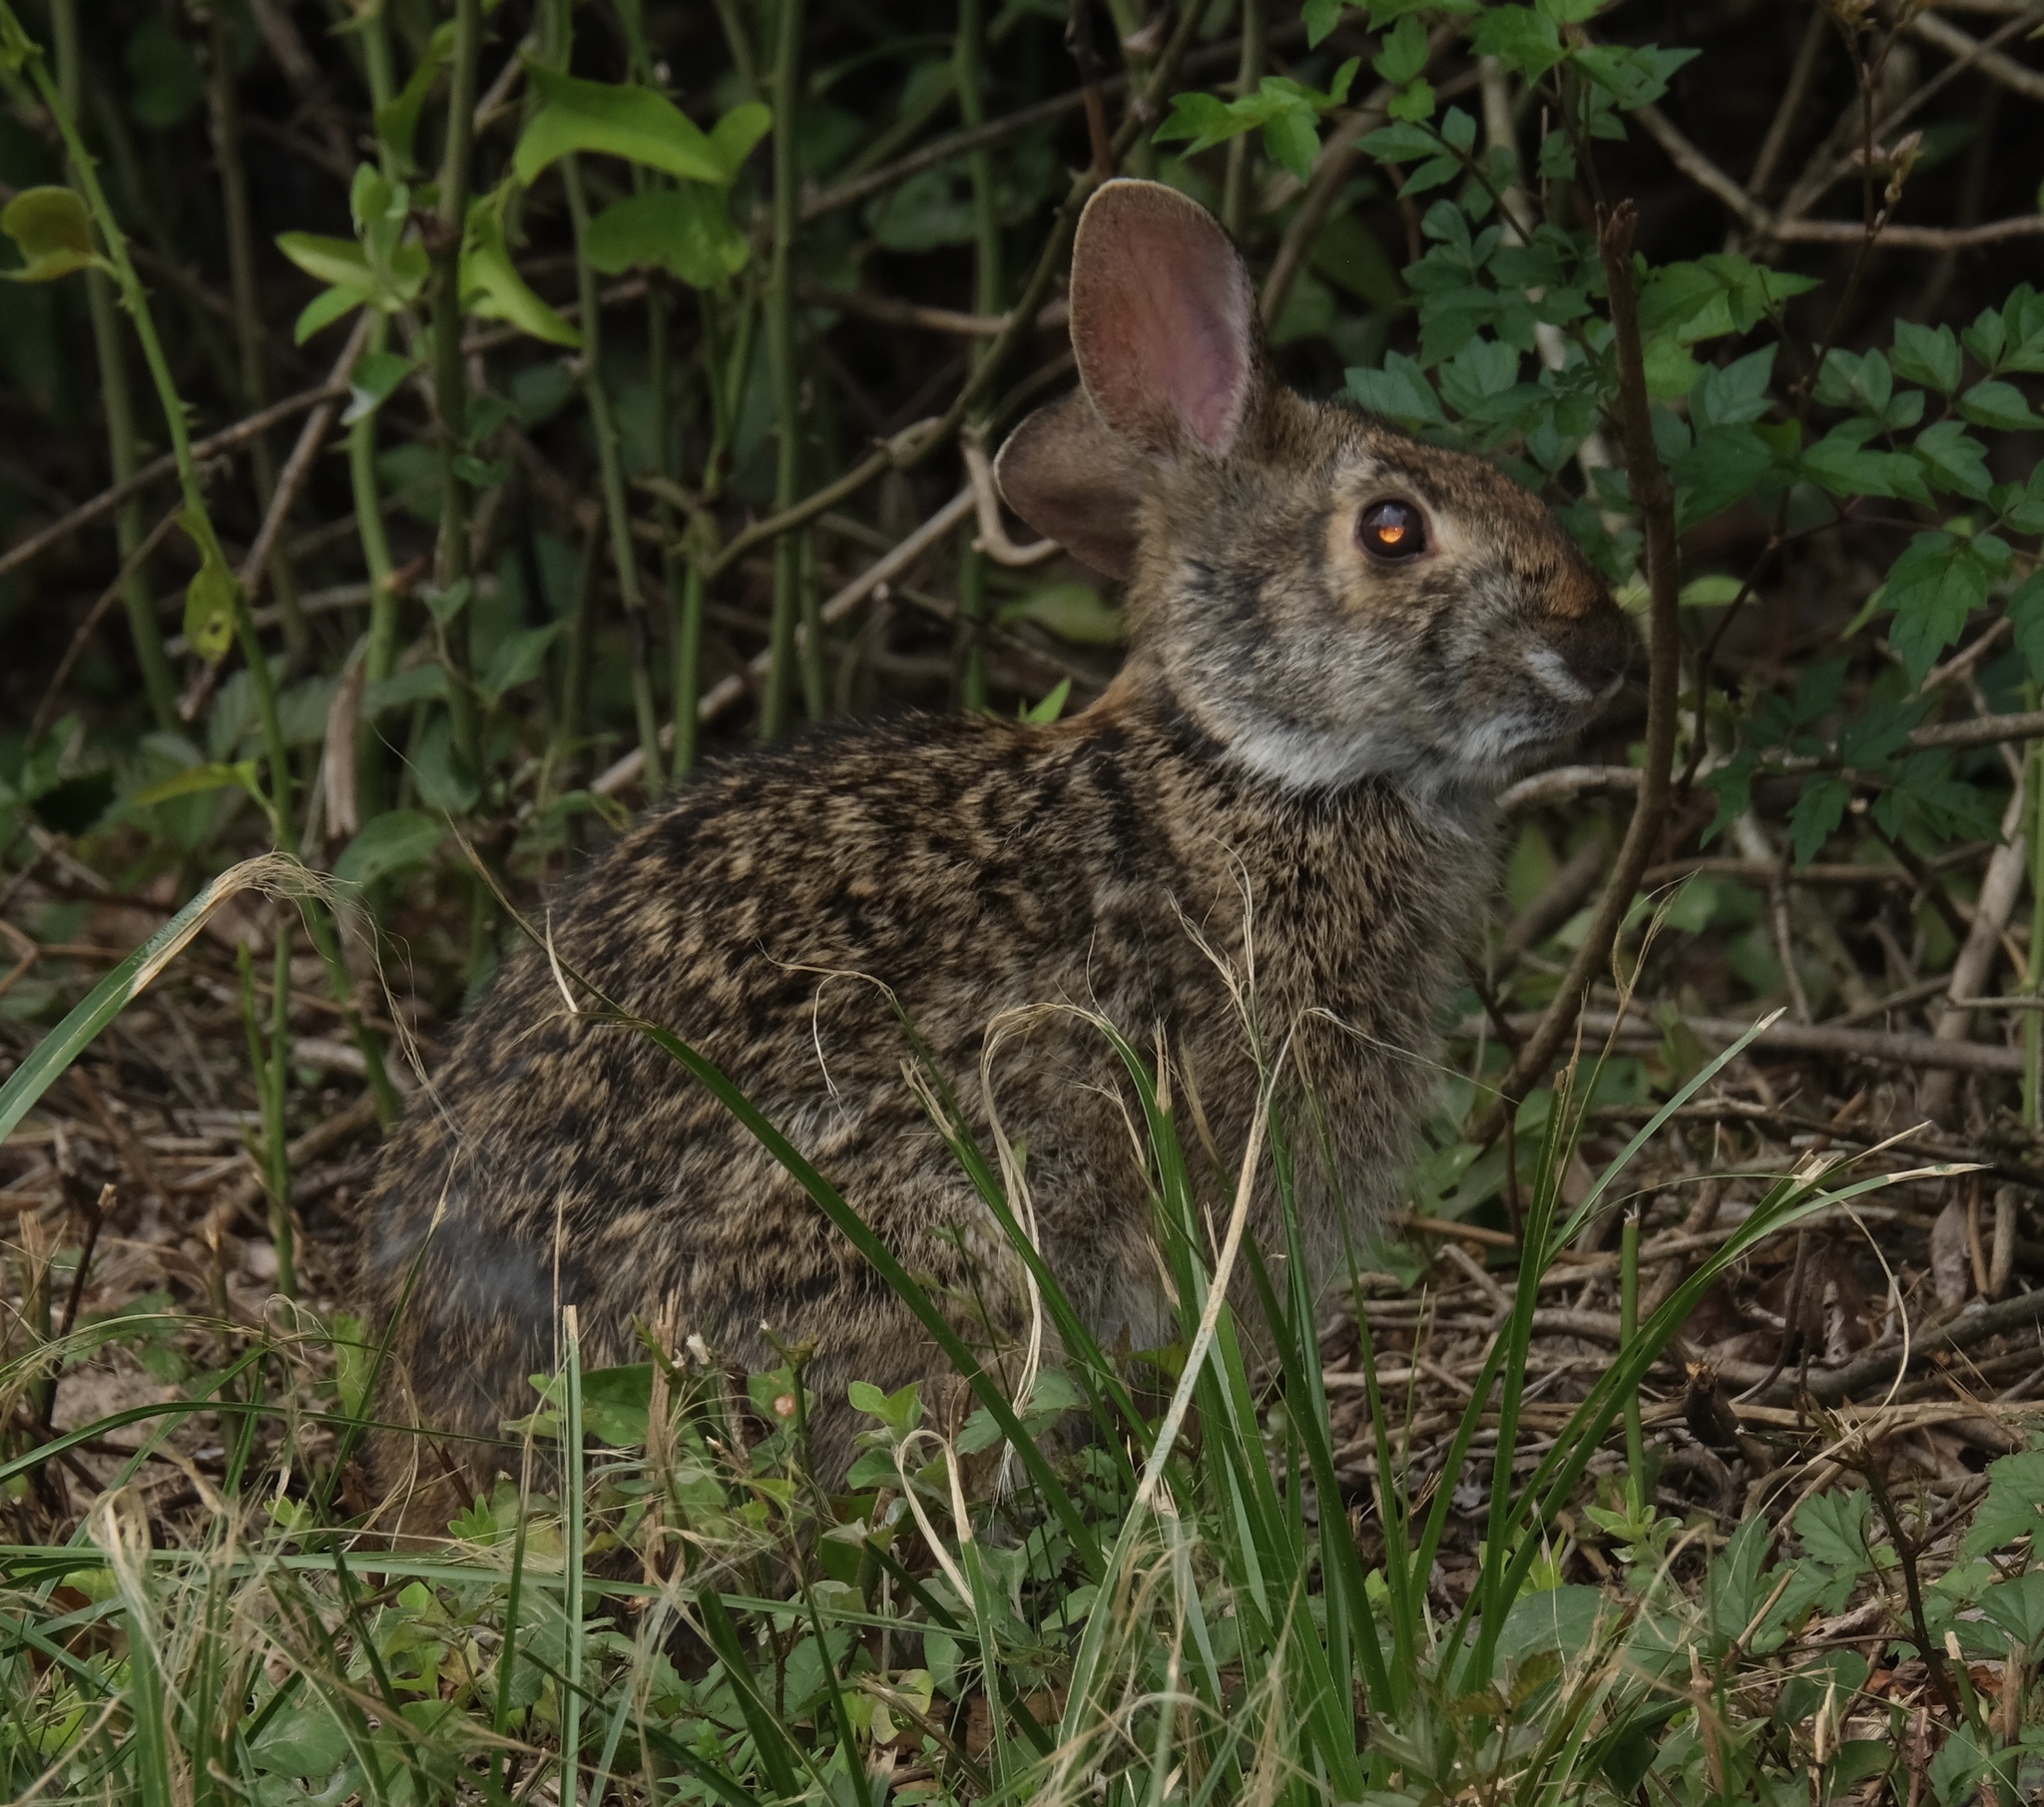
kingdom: Animalia
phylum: Chordata
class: Mammalia
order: Lagomorpha
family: Leporidae
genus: Sylvilagus
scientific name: Sylvilagus floridanus
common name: Eastern cottontail
